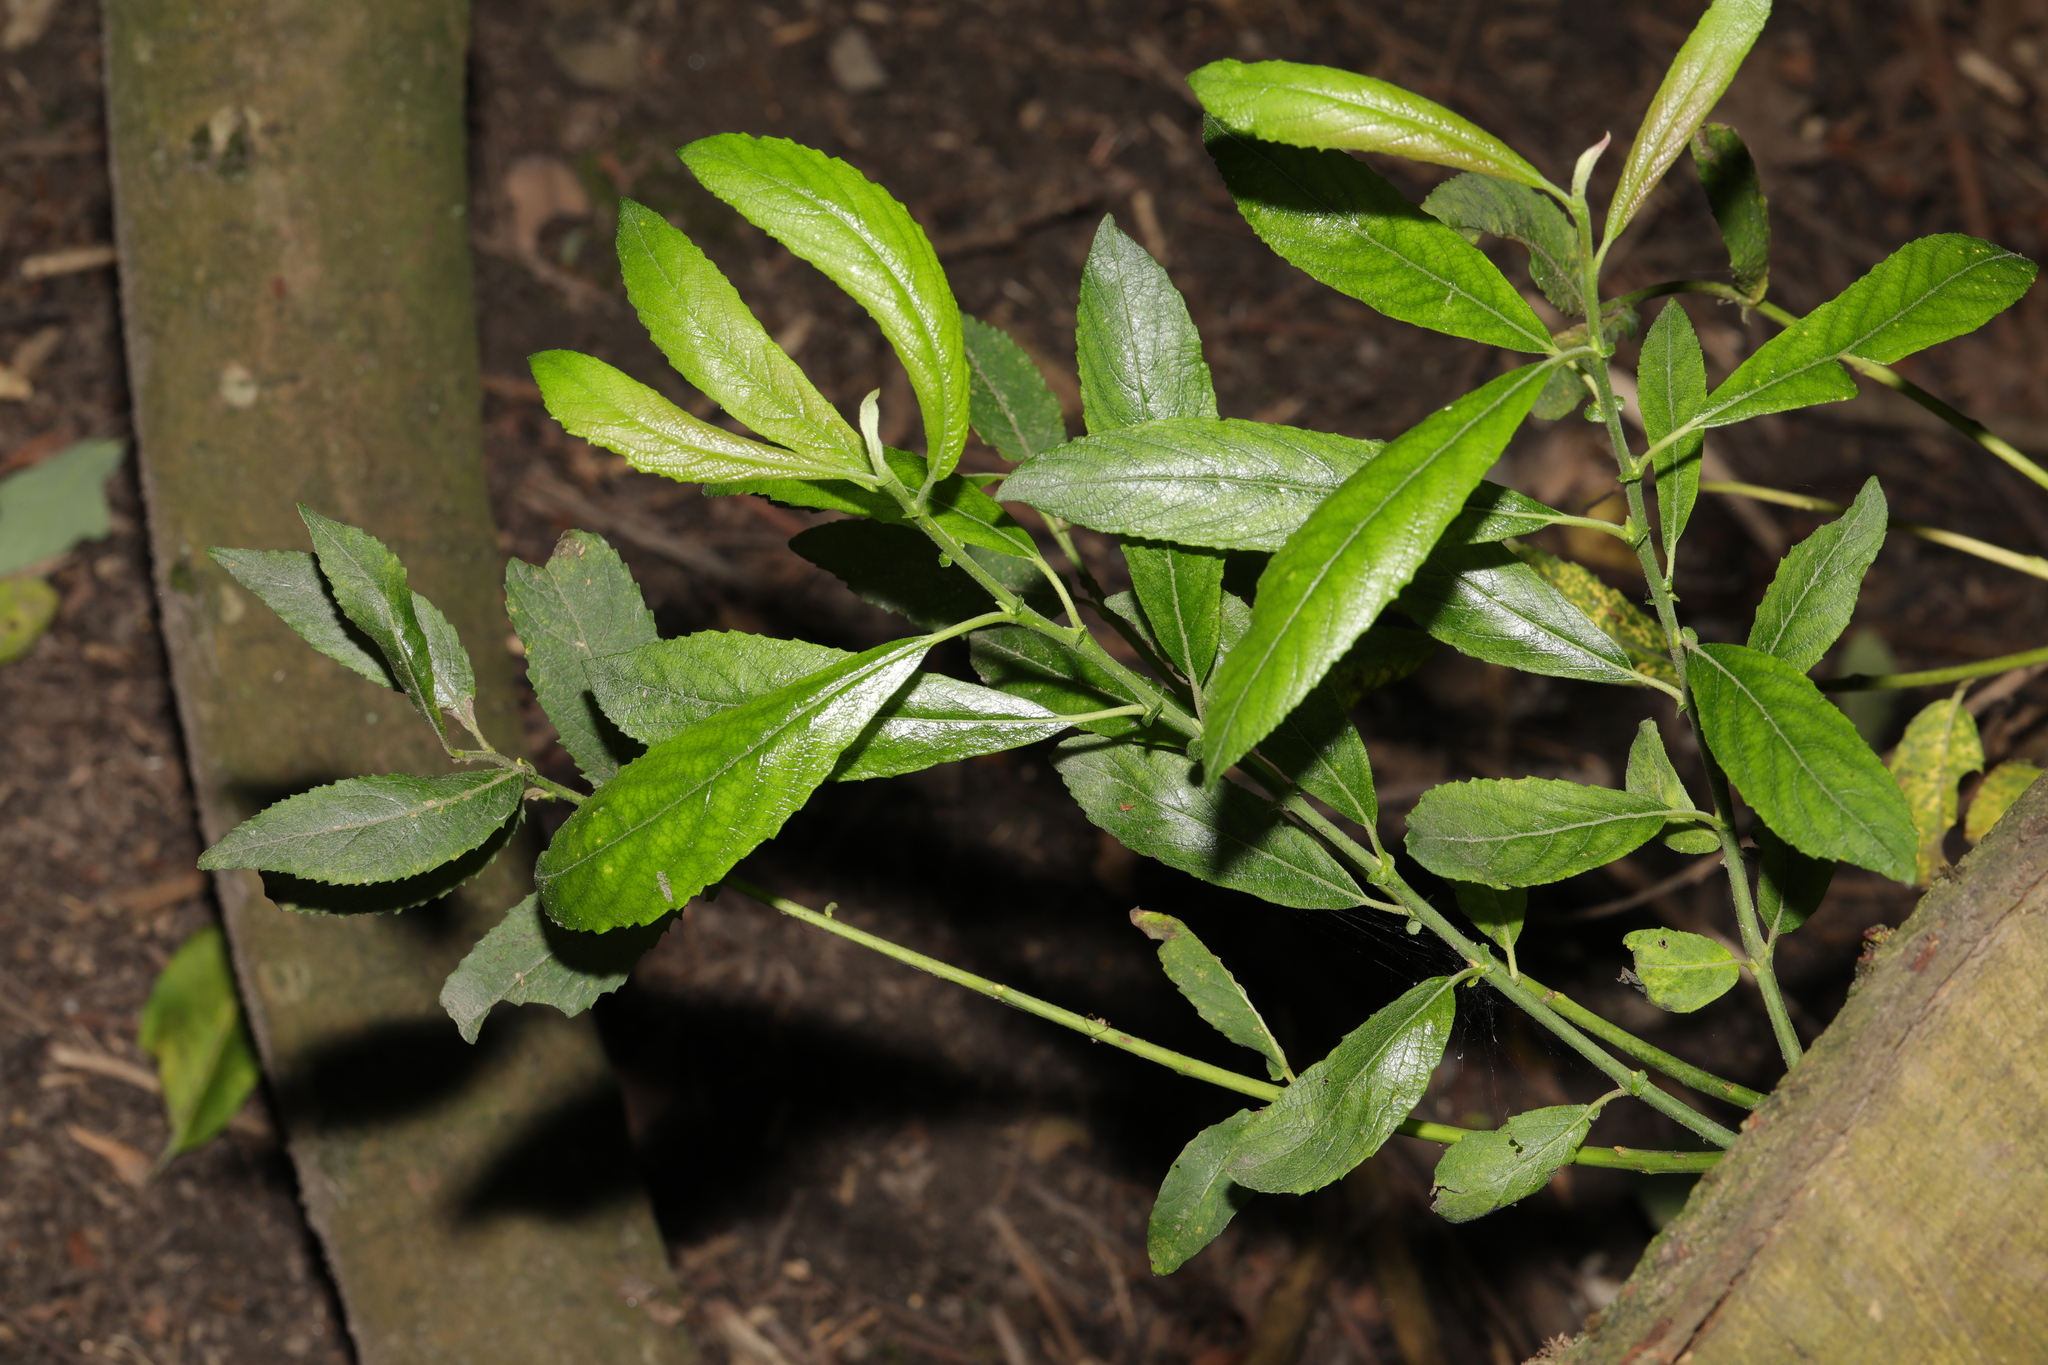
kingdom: Plantae
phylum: Tracheophyta
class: Magnoliopsida
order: Malpighiales
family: Salicaceae
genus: Salix
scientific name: Salix cinerea
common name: Common sallow
